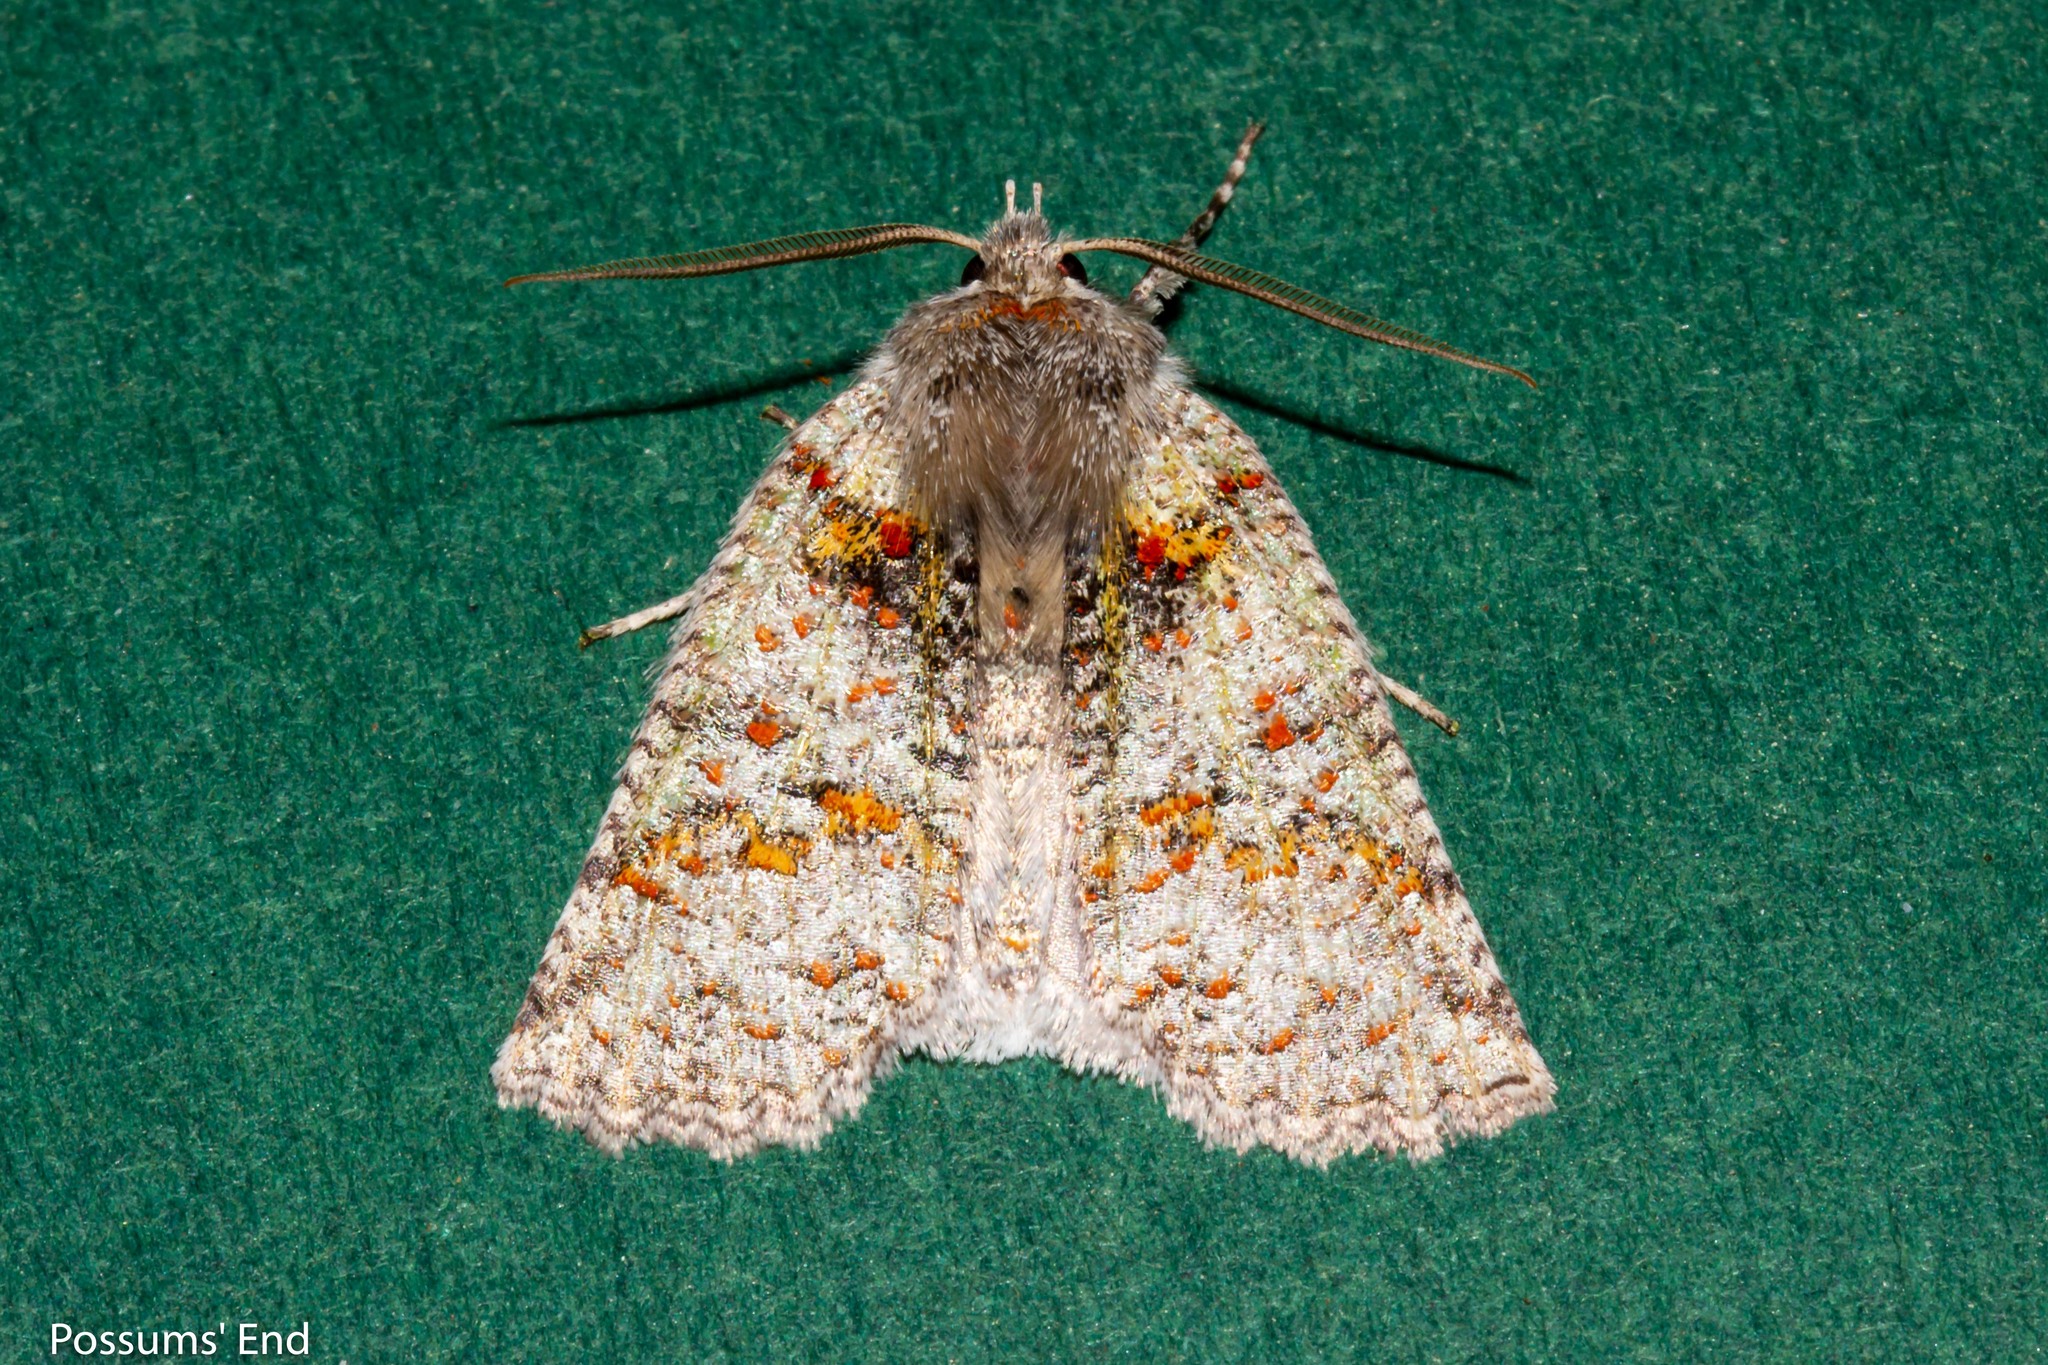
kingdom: Animalia
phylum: Arthropoda
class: Insecta
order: Lepidoptera
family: Geometridae
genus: Declana
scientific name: Declana floccosa
